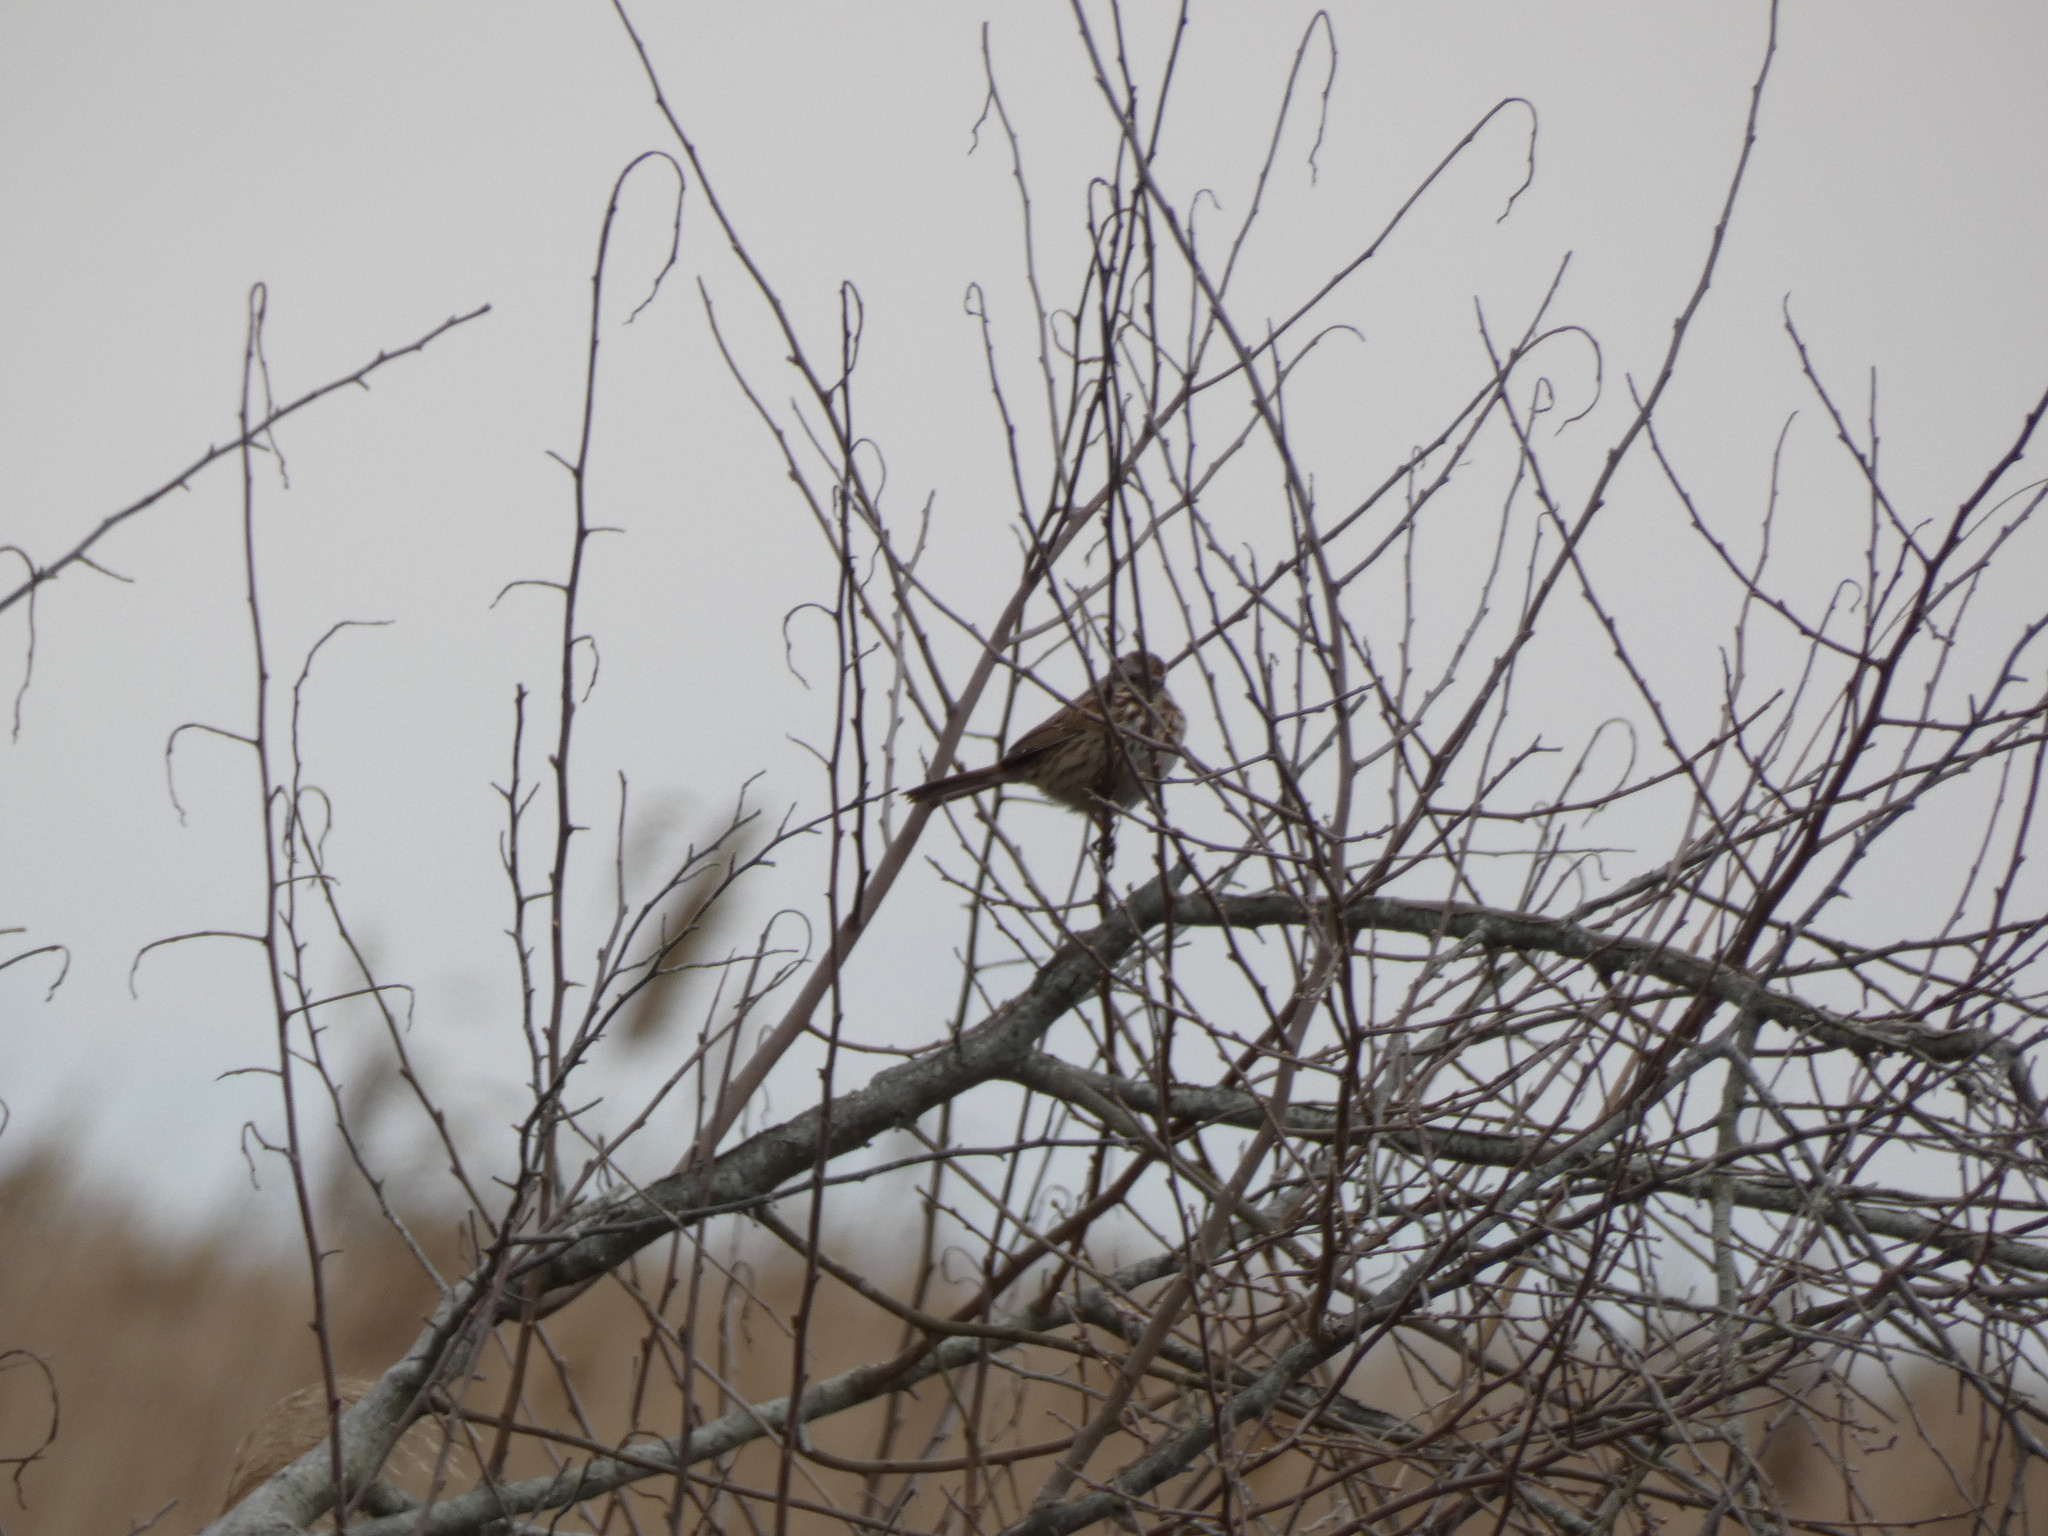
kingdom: Animalia
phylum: Chordata
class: Aves
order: Passeriformes
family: Passerellidae
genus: Melospiza
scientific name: Melospiza melodia
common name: Song sparrow
